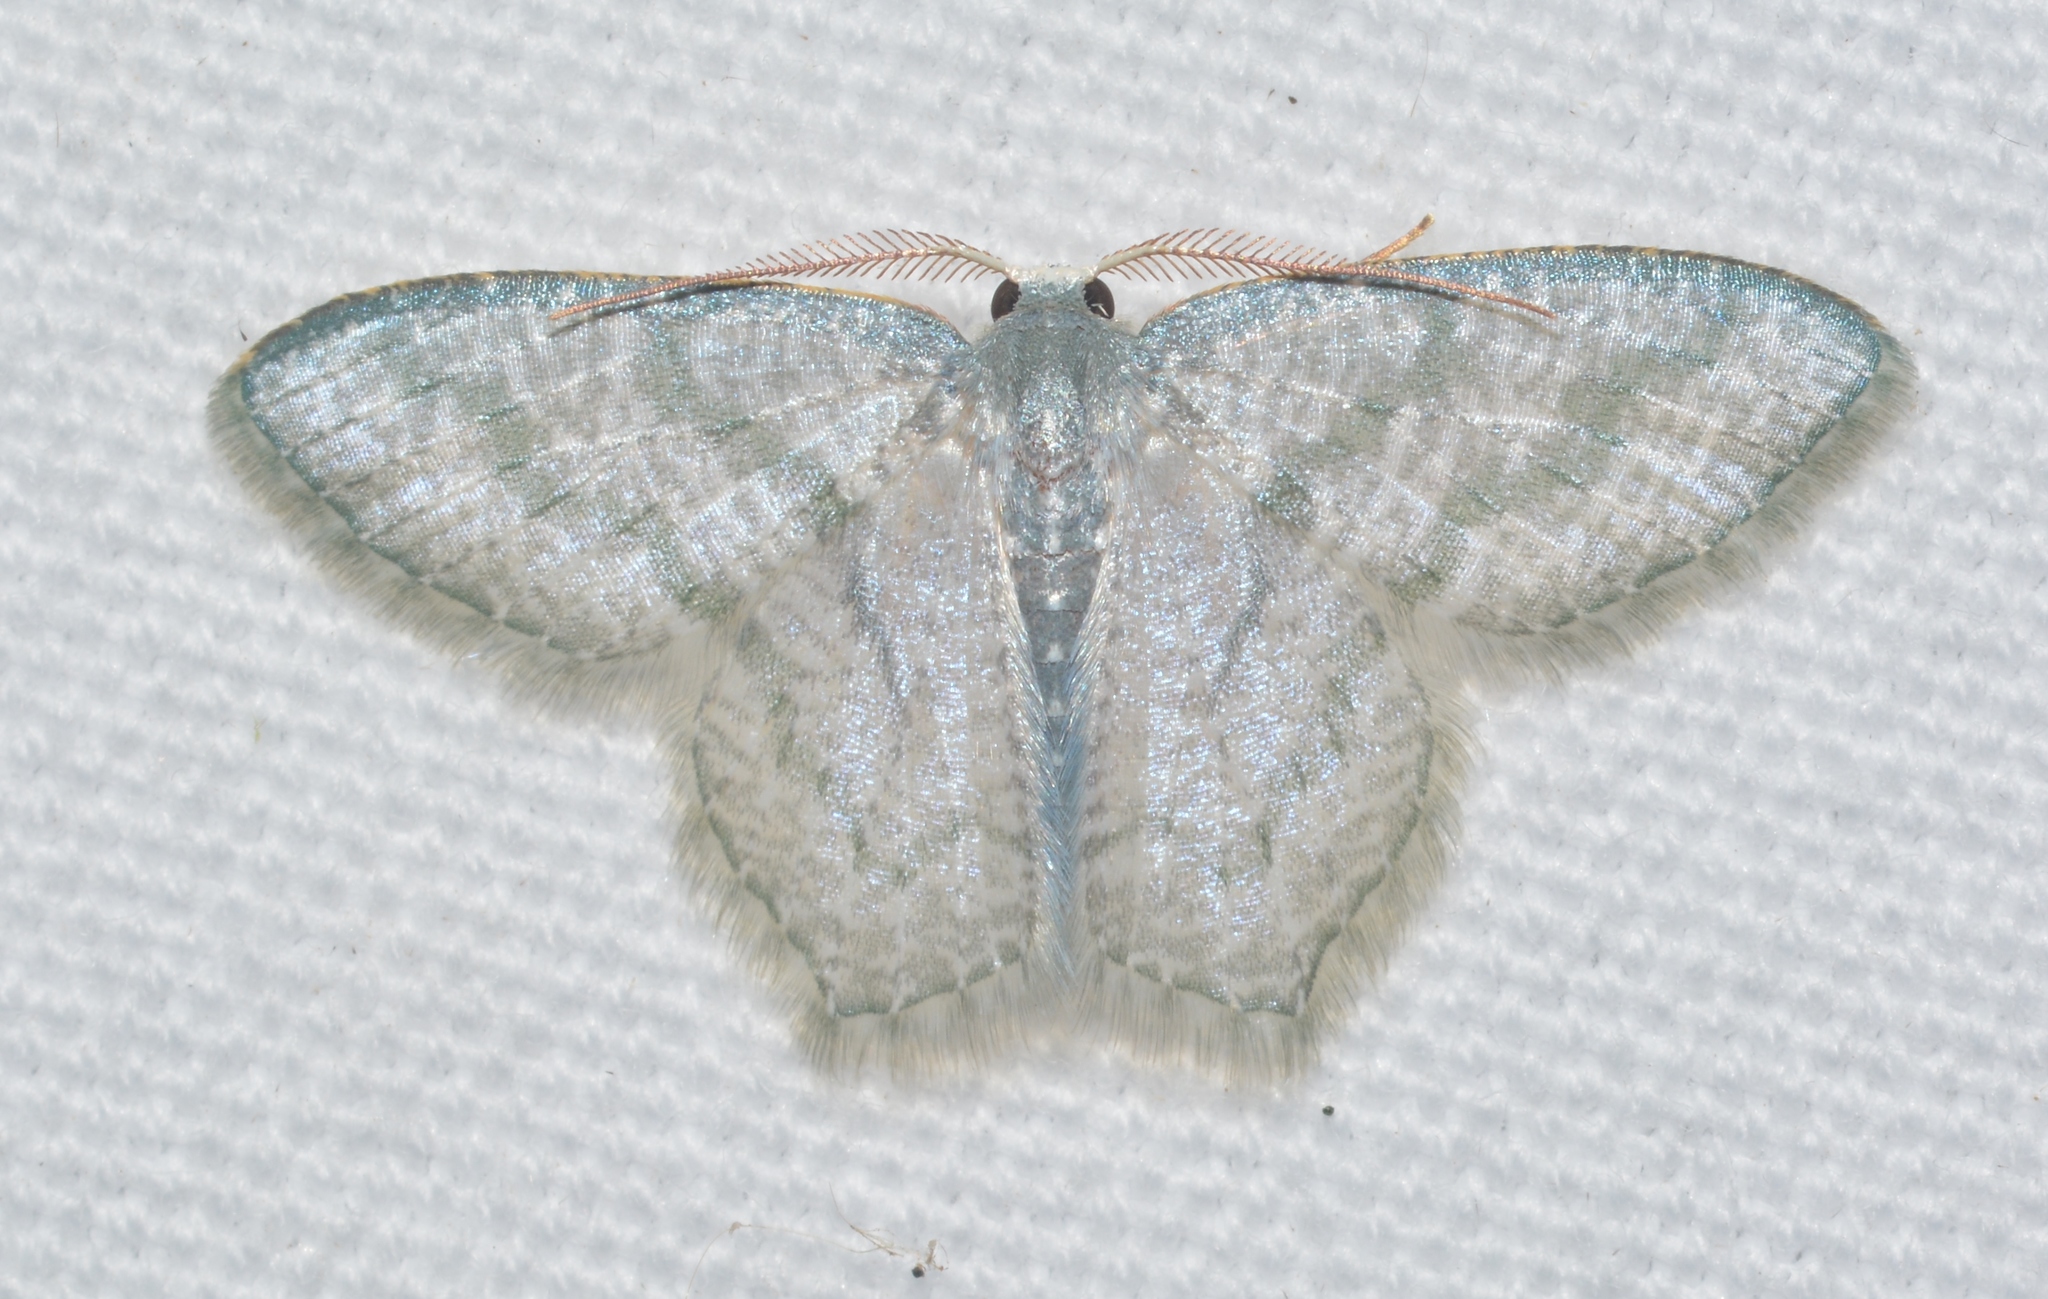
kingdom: Animalia
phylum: Arthropoda
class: Insecta
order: Lepidoptera
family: Geometridae
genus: Chloropteryx
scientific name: Chloropteryx opalaria
